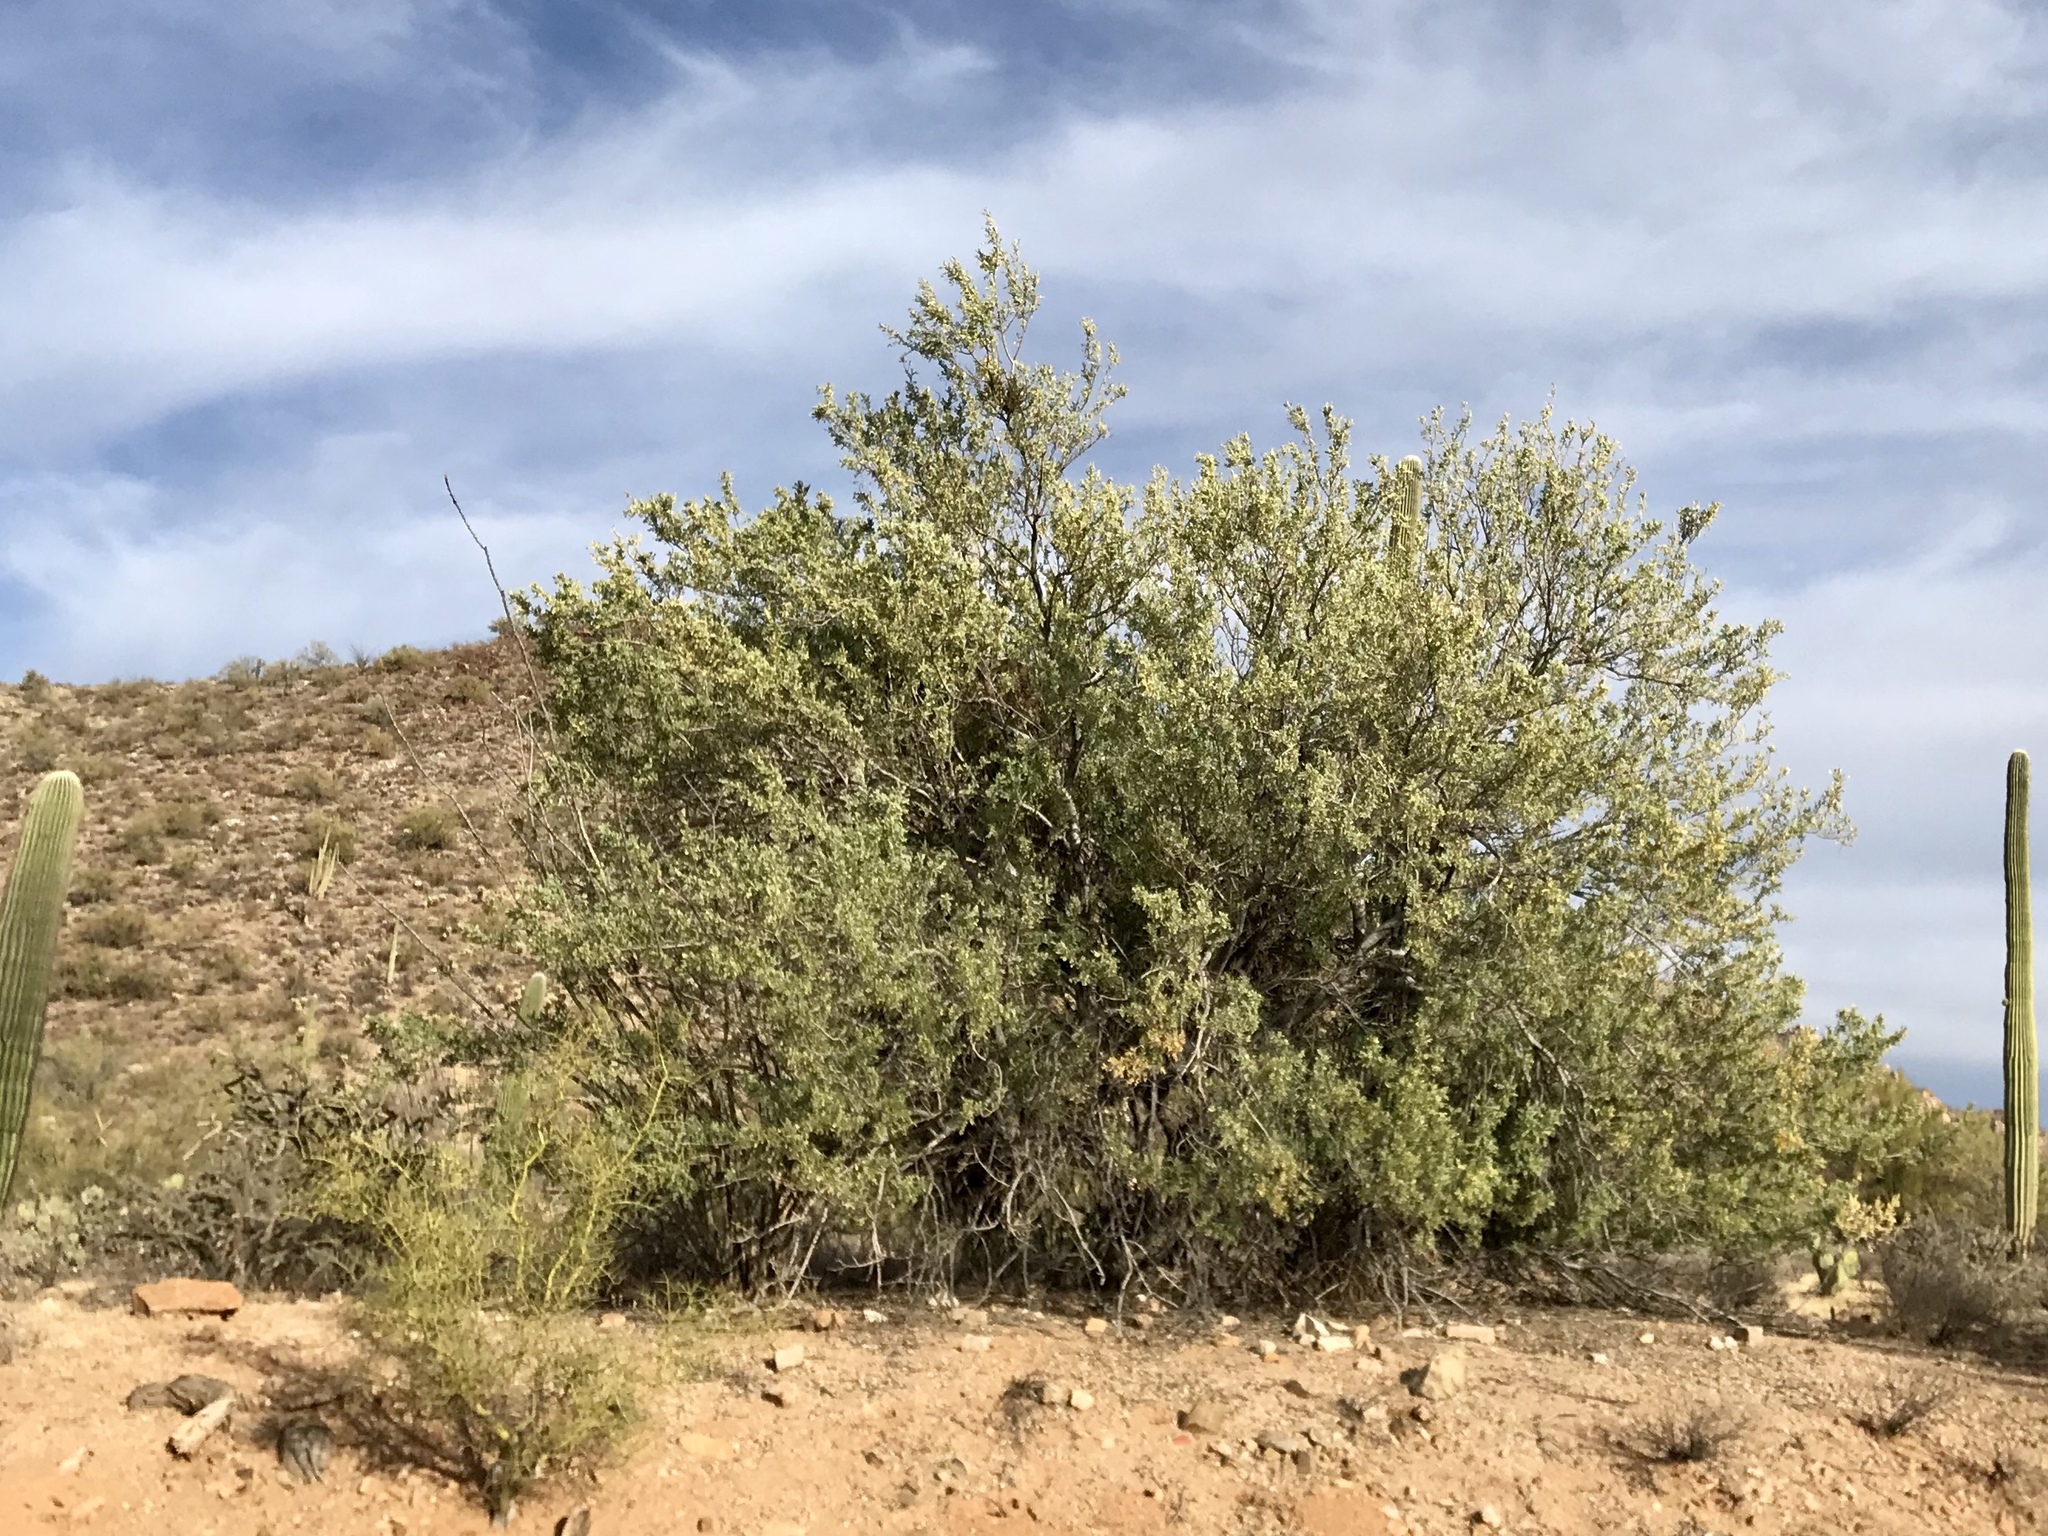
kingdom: Plantae
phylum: Tracheophyta
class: Magnoliopsida
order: Fabales
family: Fabaceae
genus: Olneya
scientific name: Olneya tesota
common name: Desert ironwood
